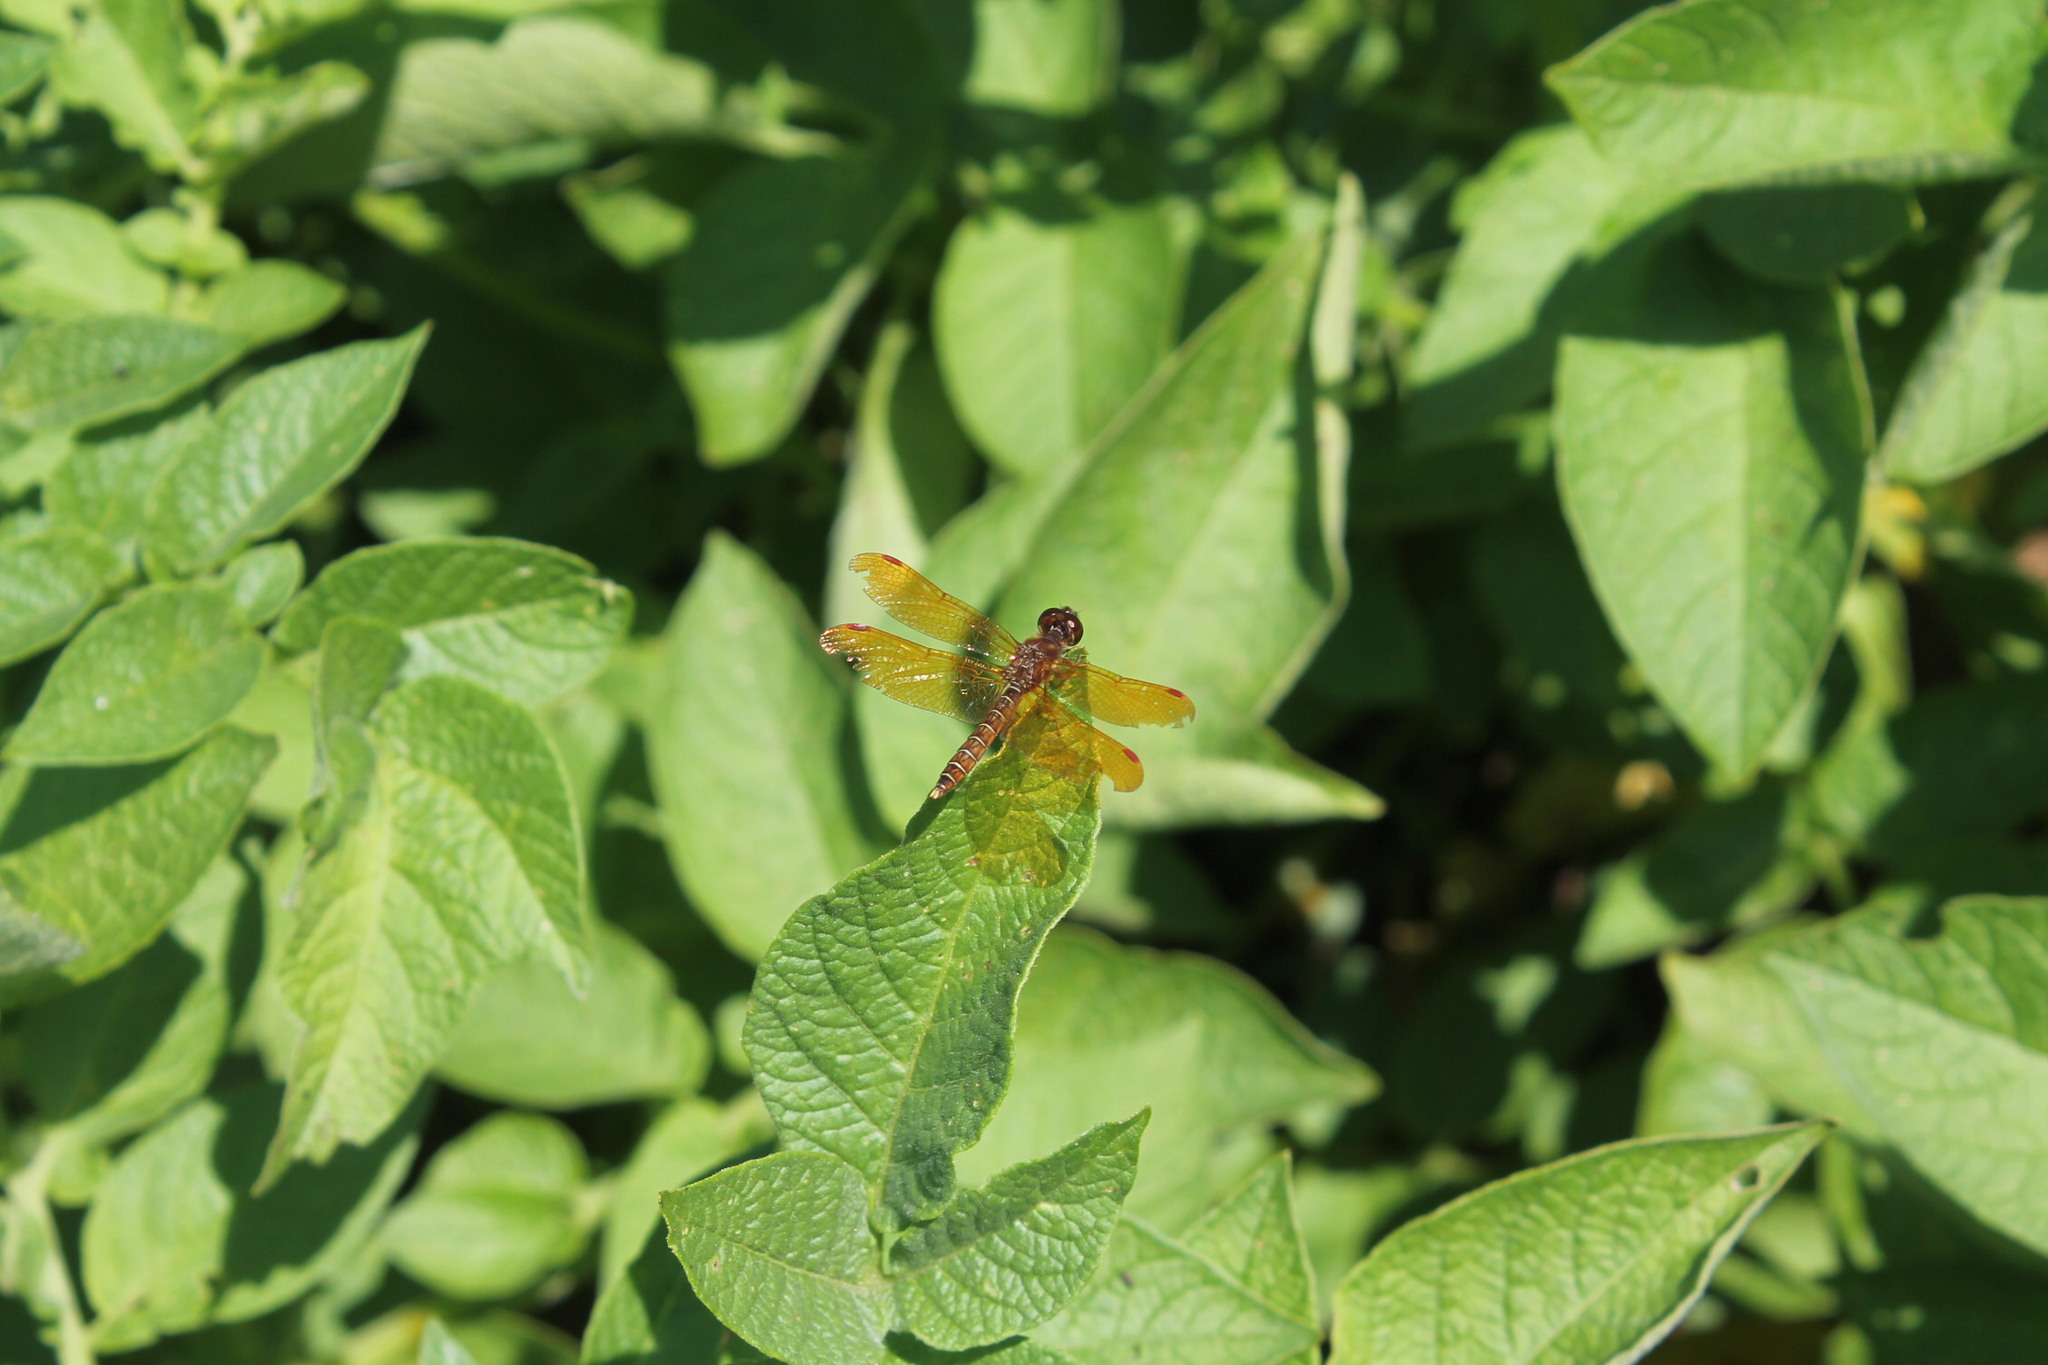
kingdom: Animalia
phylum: Arthropoda
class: Insecta
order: Odonata
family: Libellulidae
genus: Perithemis
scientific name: Perithemis tenera
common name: Eastern amberwing
